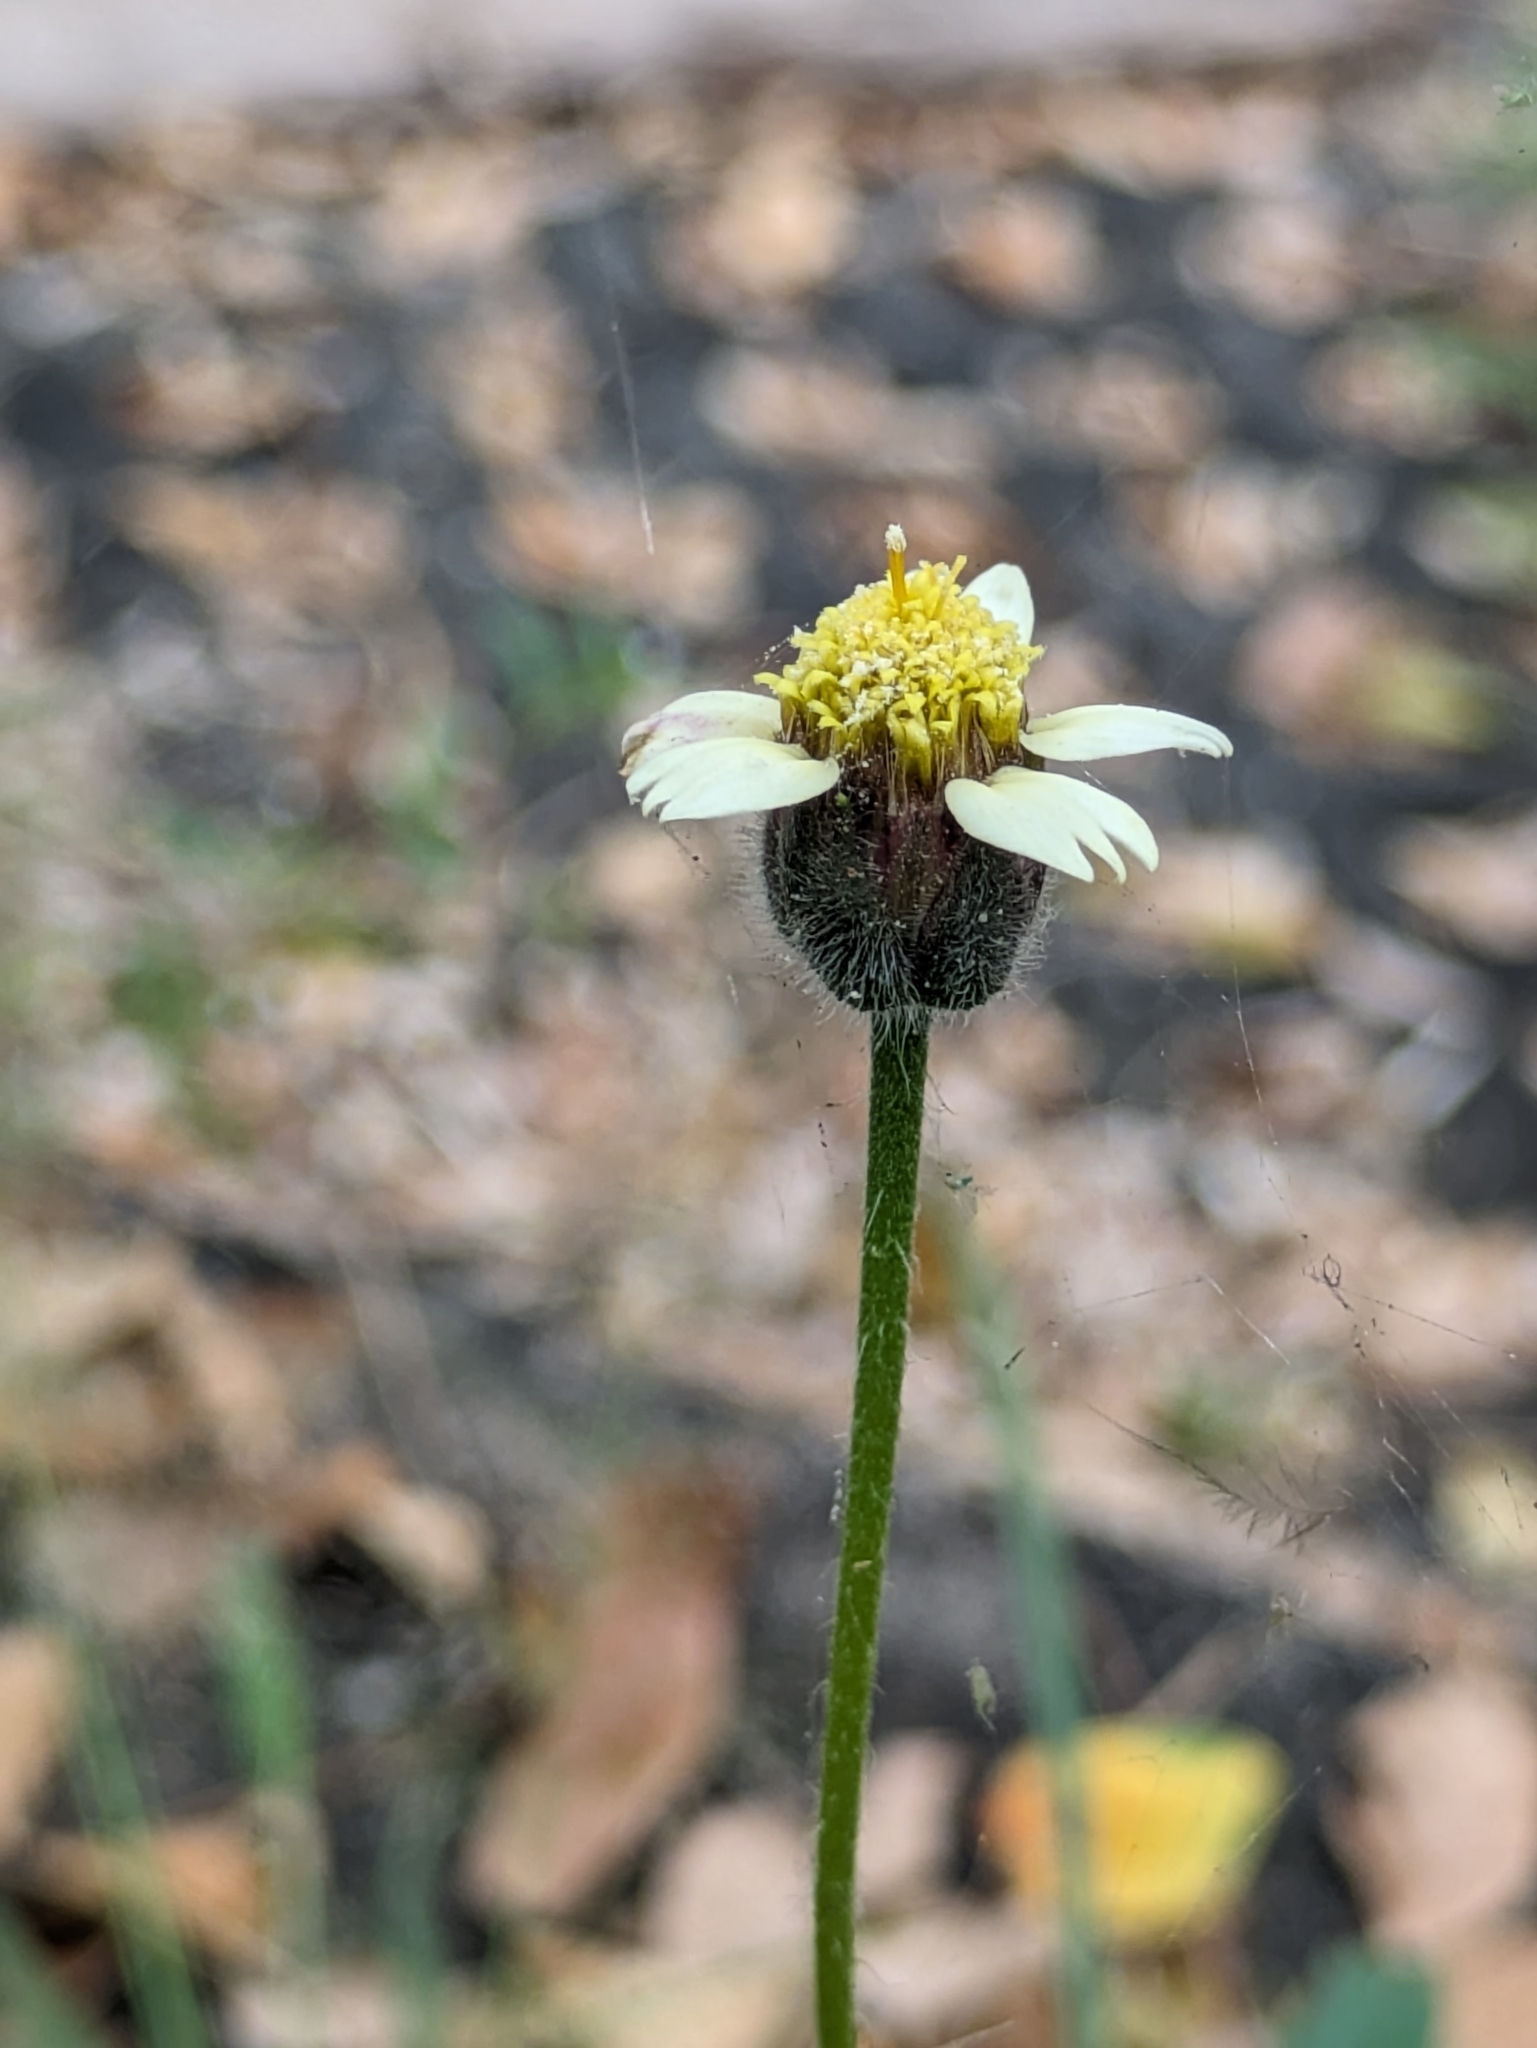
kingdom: Plantae
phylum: Tracheophyta
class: Magnoliopsida
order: Asterales
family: Asteraceae
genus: Tridax
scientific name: Tridax procumbens
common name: Coatbuttons
